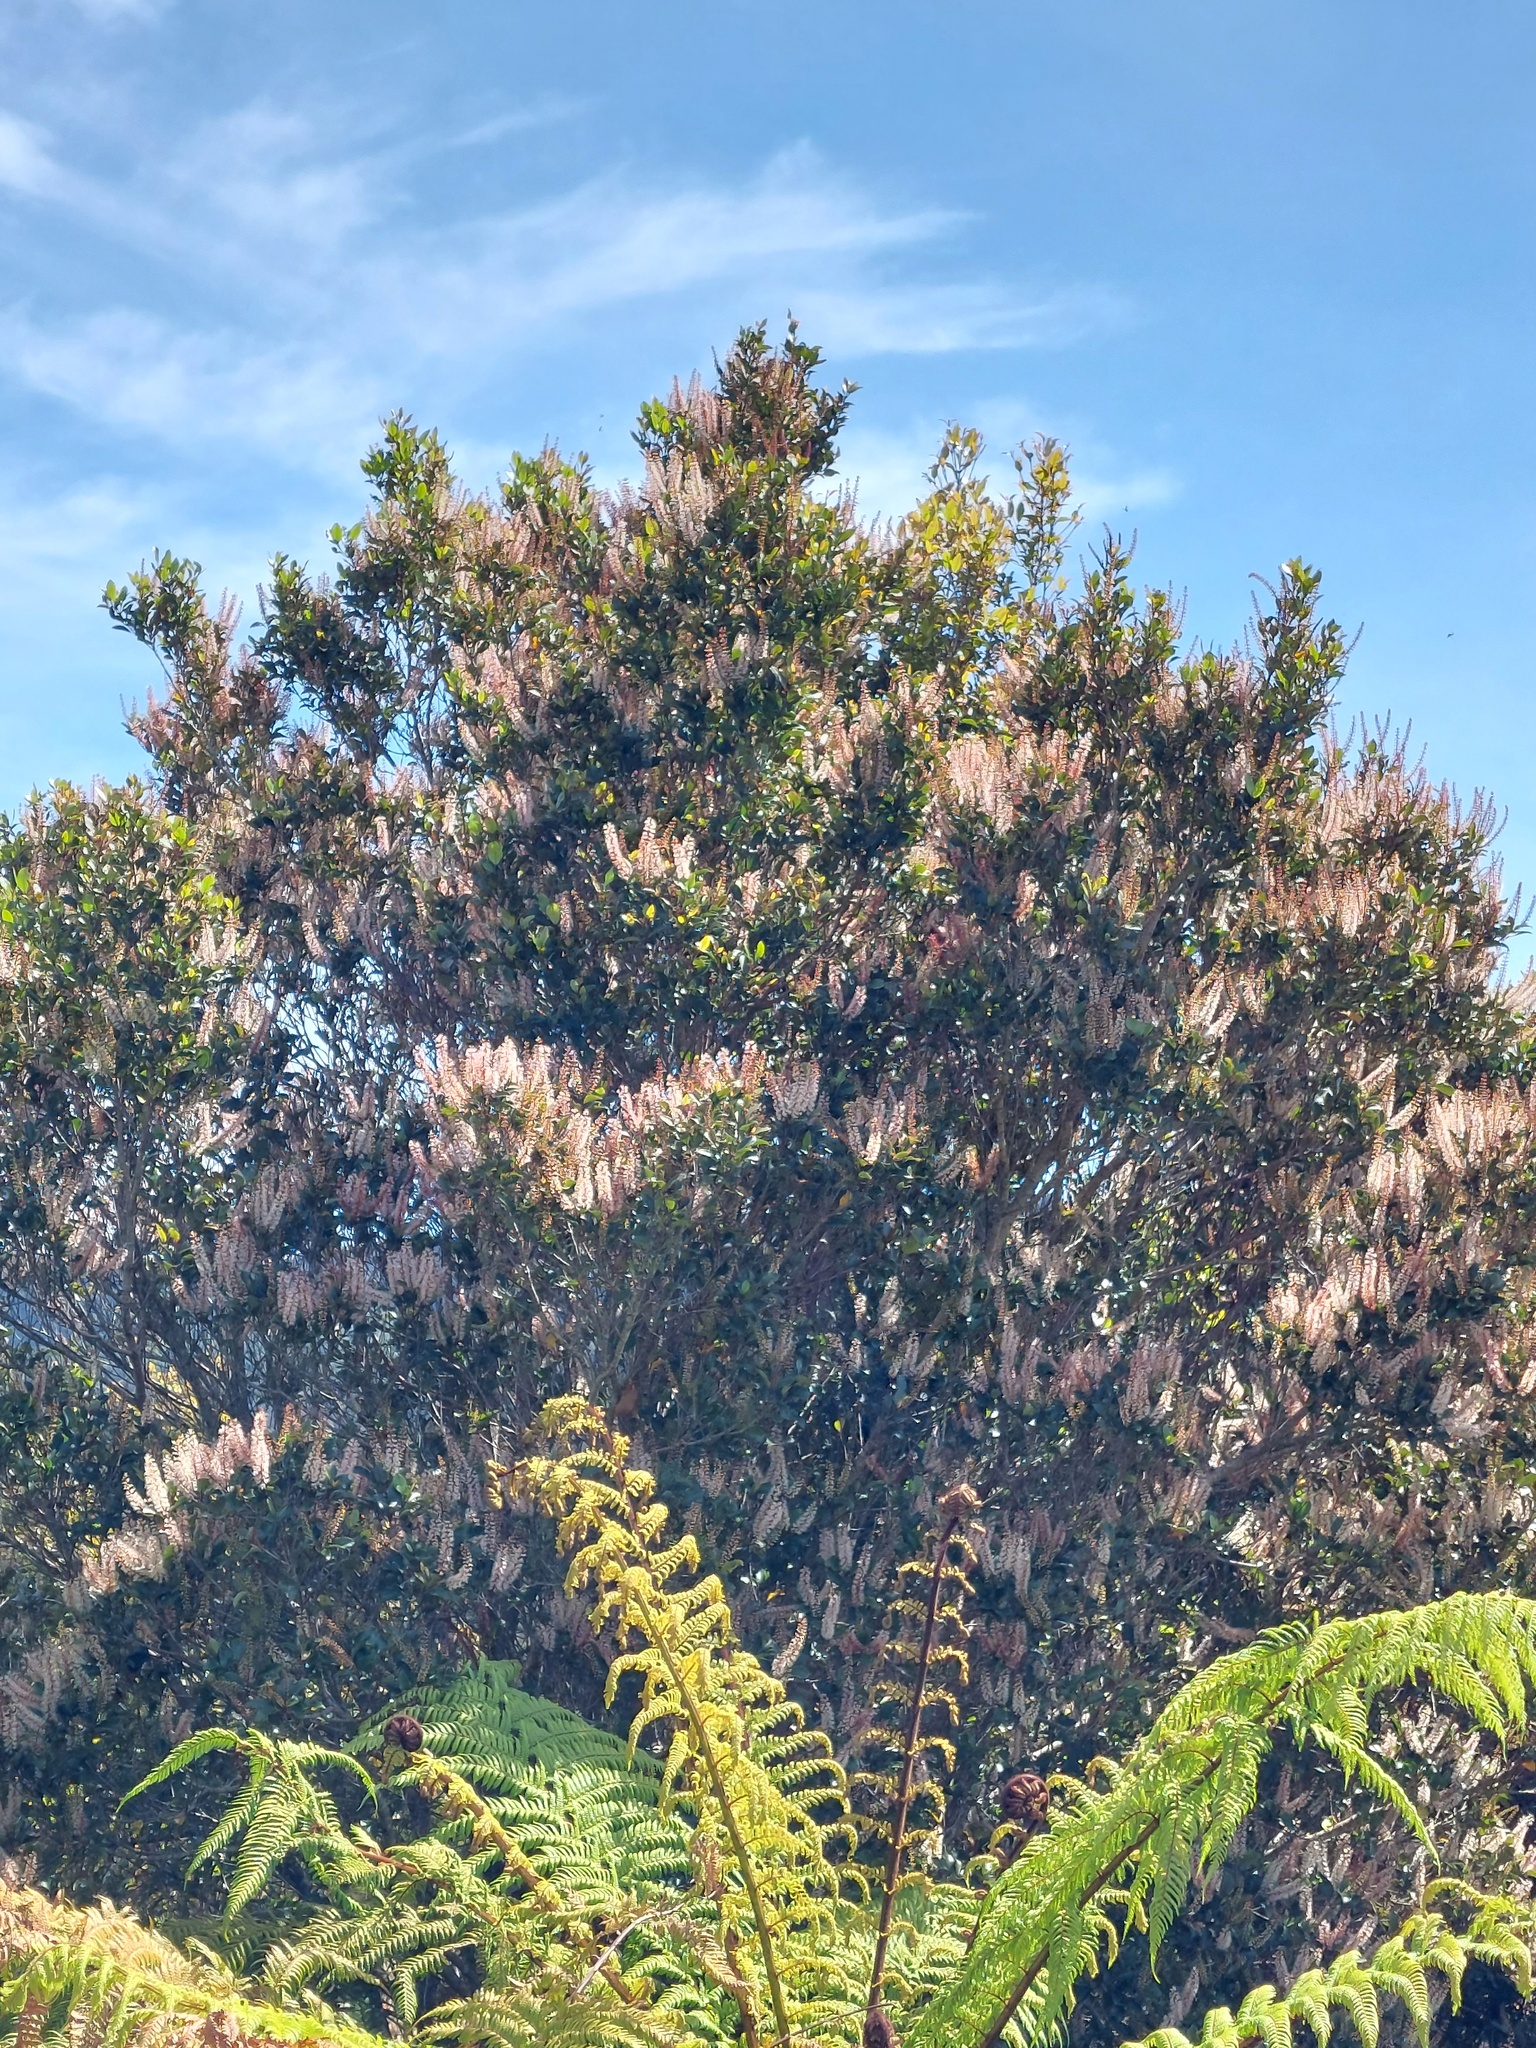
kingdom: Plantae
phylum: Tracheophyta
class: Magnoliopsida
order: Oxalidales
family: Cunoniaceae
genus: Pterophylla
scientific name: Pterophylla racemosa
